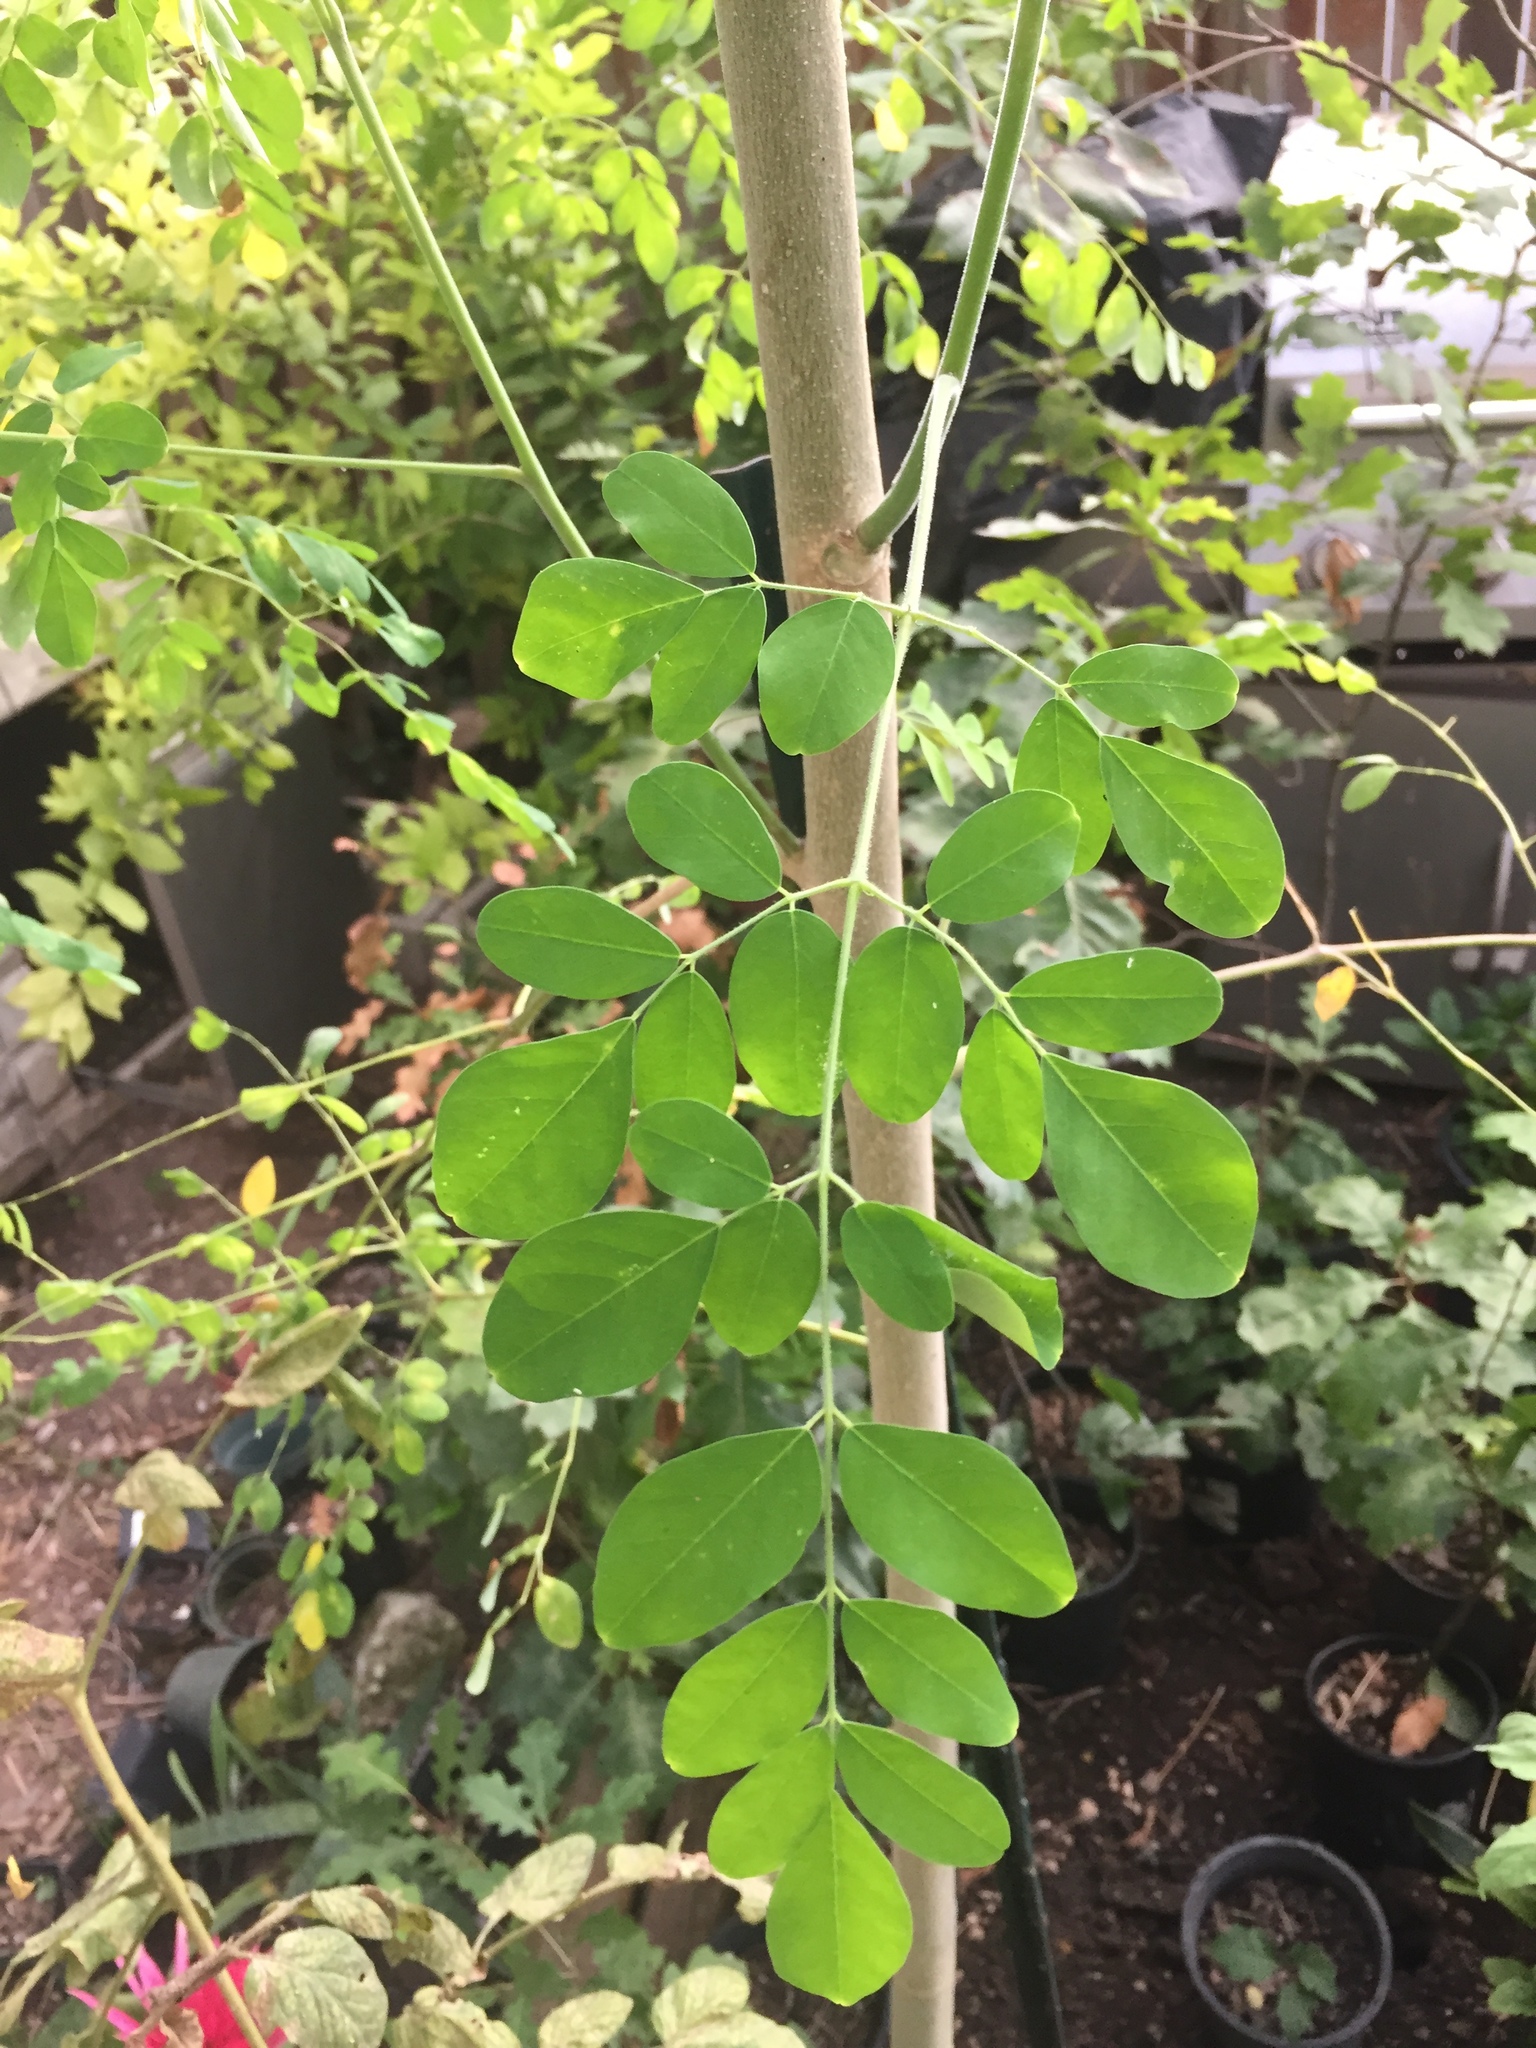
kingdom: Plantae
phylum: Tracheophyta
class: Magnoliopsida
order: Brassicales
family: Moringaceae
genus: Moringa
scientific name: Moringa oleifera
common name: Horseradish-tree
